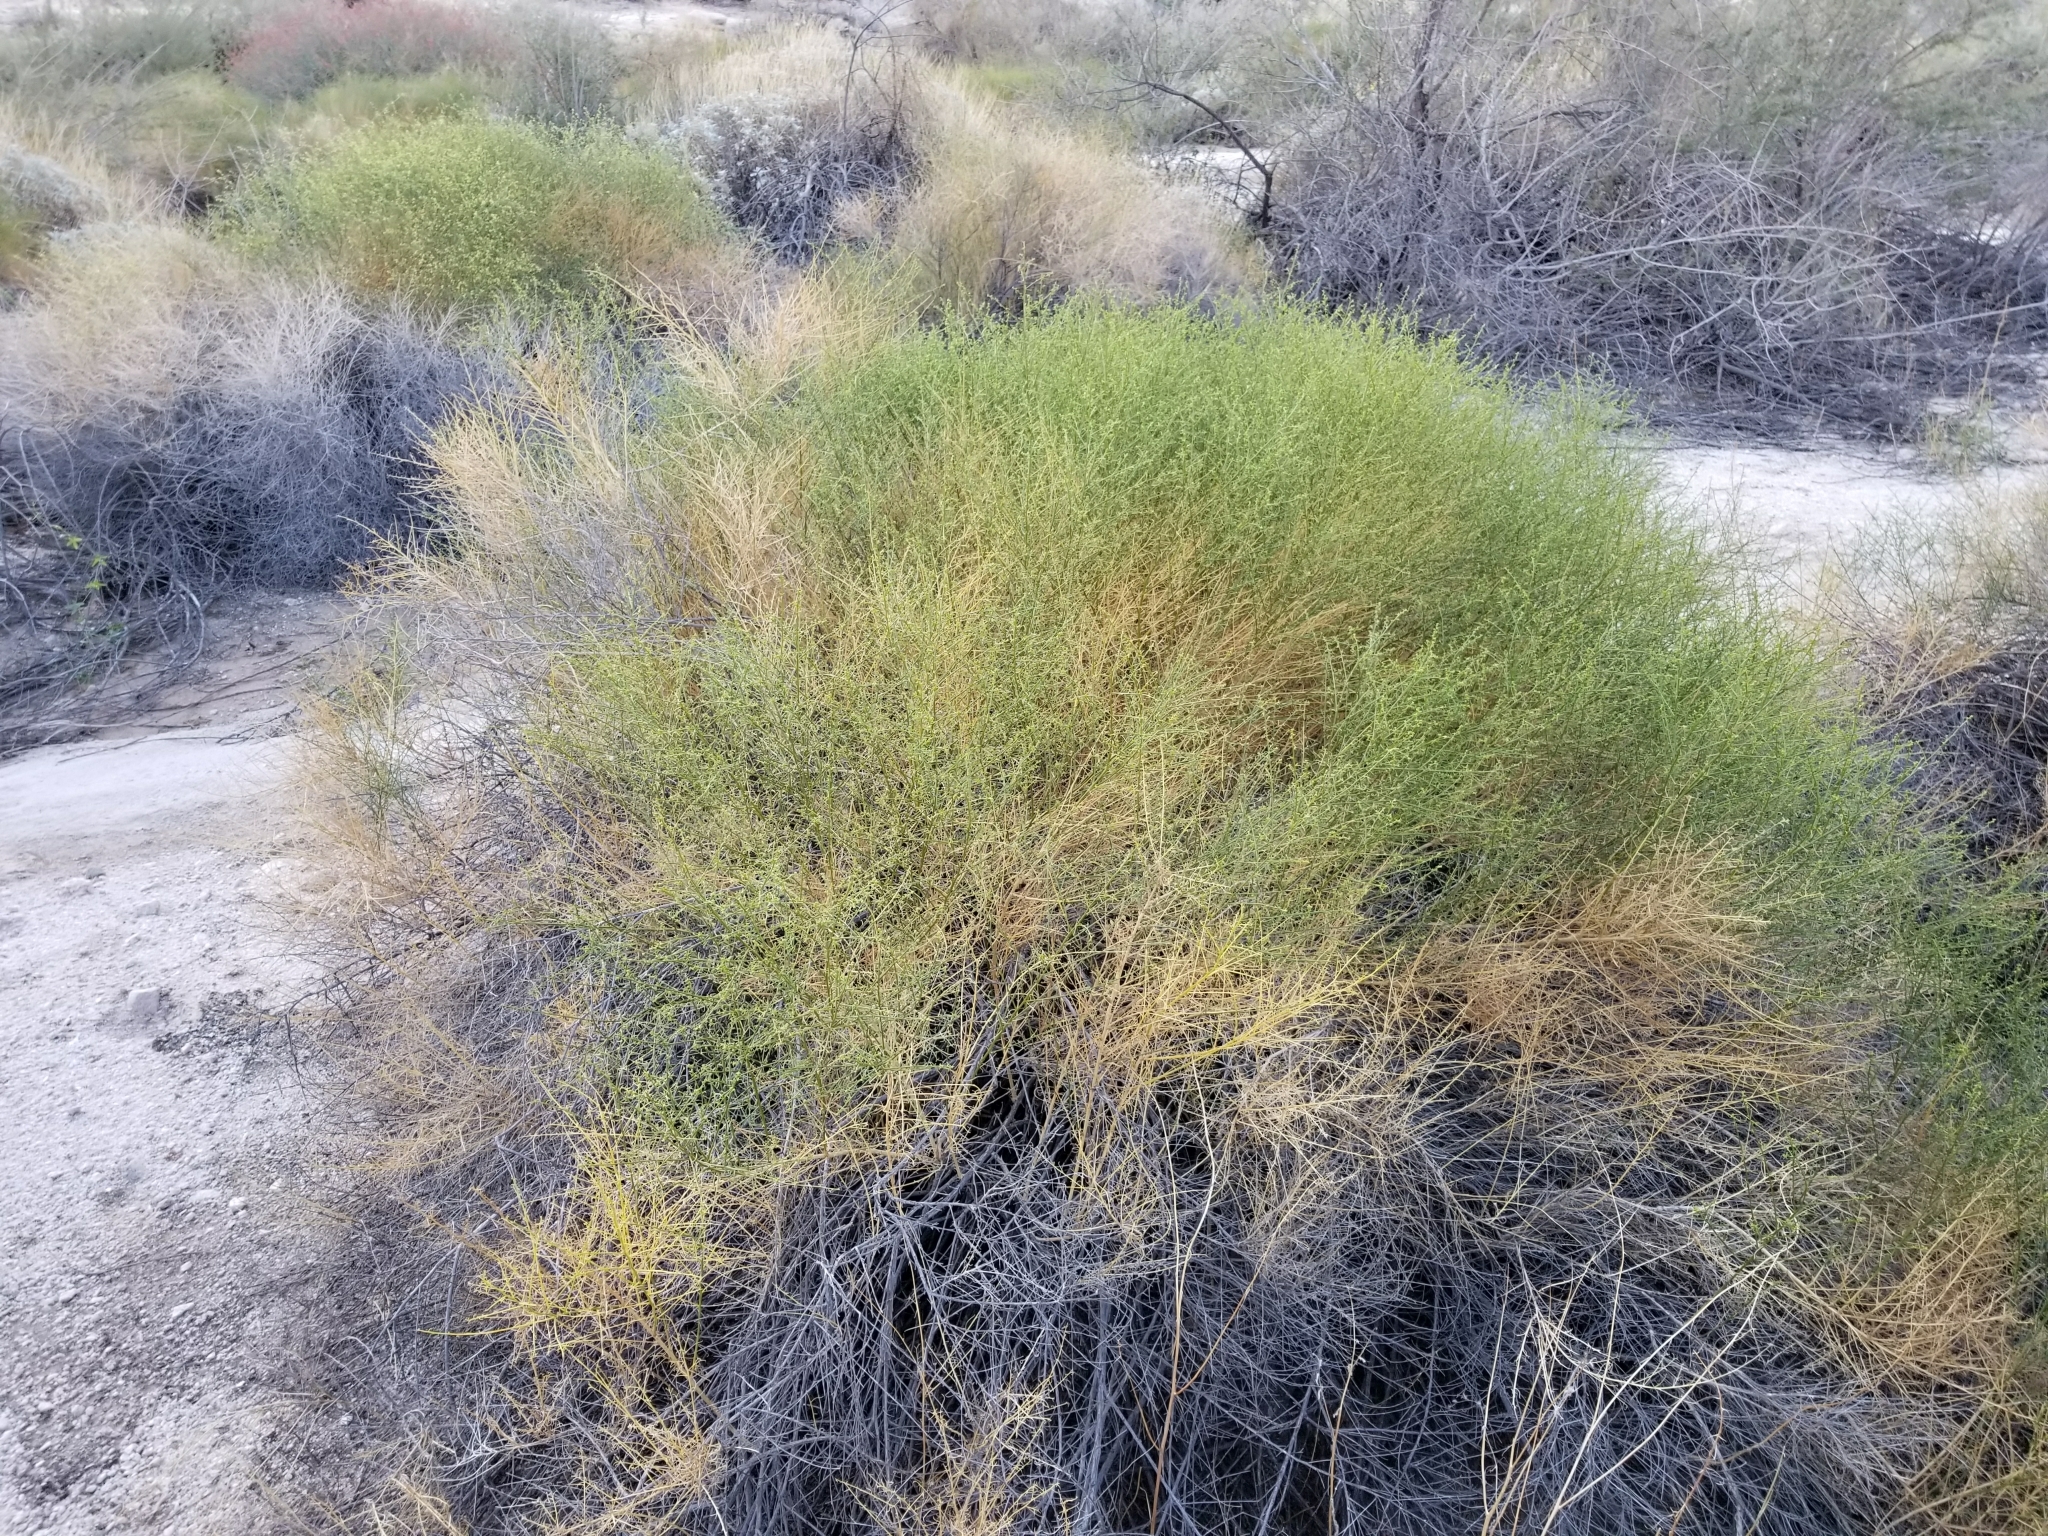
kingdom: Plantae
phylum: Tracheophyta
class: Magnoliopsida
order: Asterales
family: Asteraceae
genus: Ambrosia
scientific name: Ambrosia salsola
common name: Burrobrush
